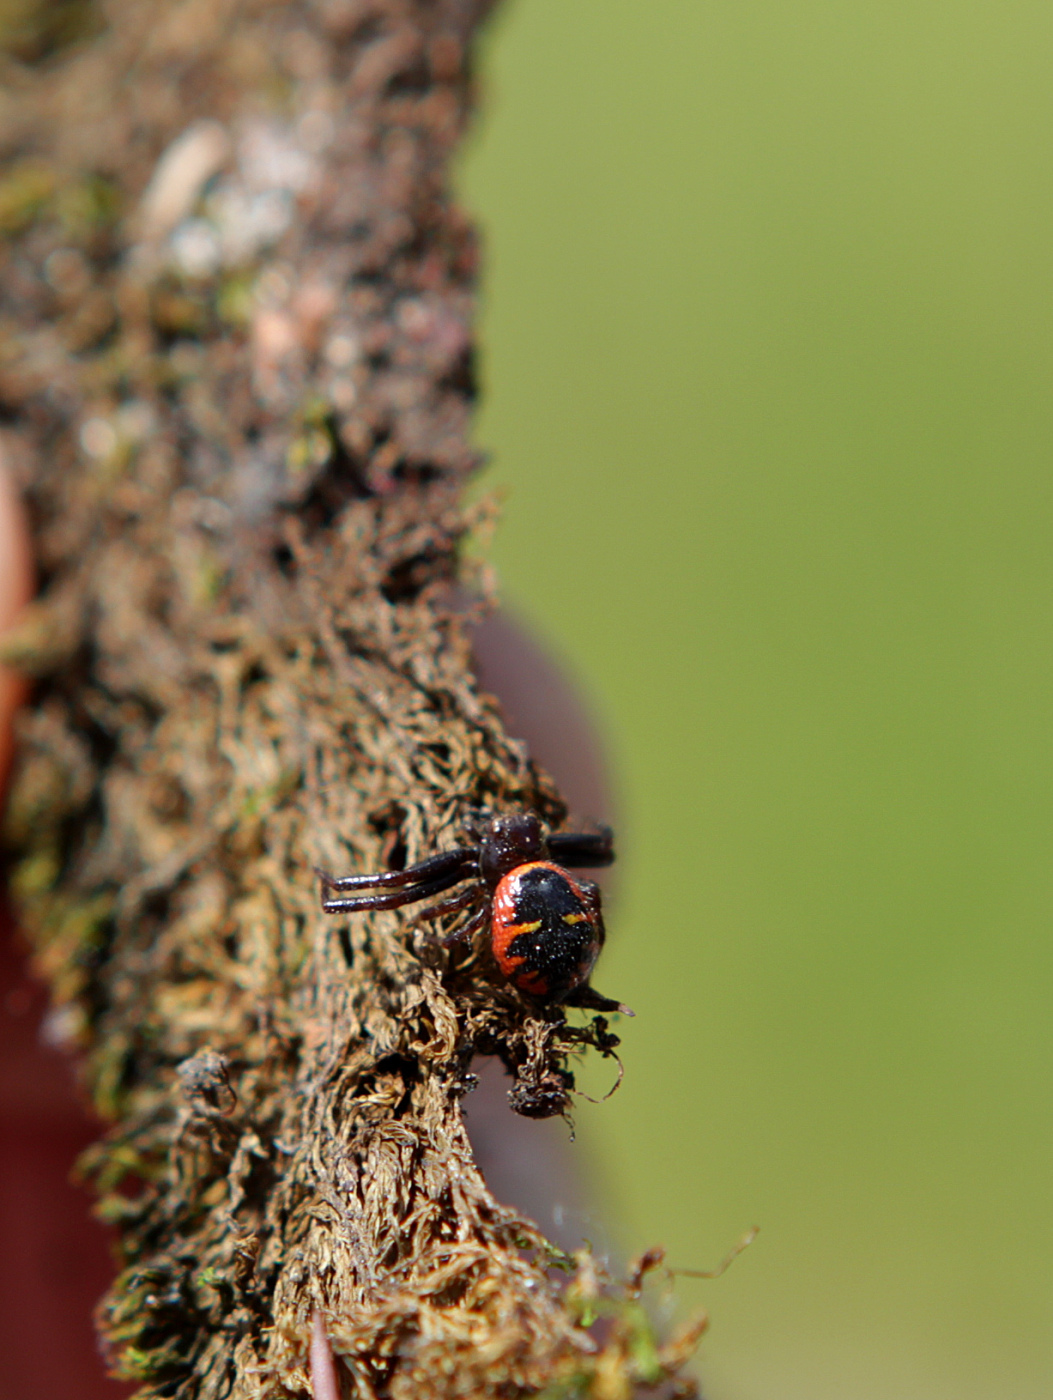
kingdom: Animalia
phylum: Arthropoda
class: Arachnida
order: Araneae
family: Thomisidae
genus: Synema
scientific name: Synema globosum
